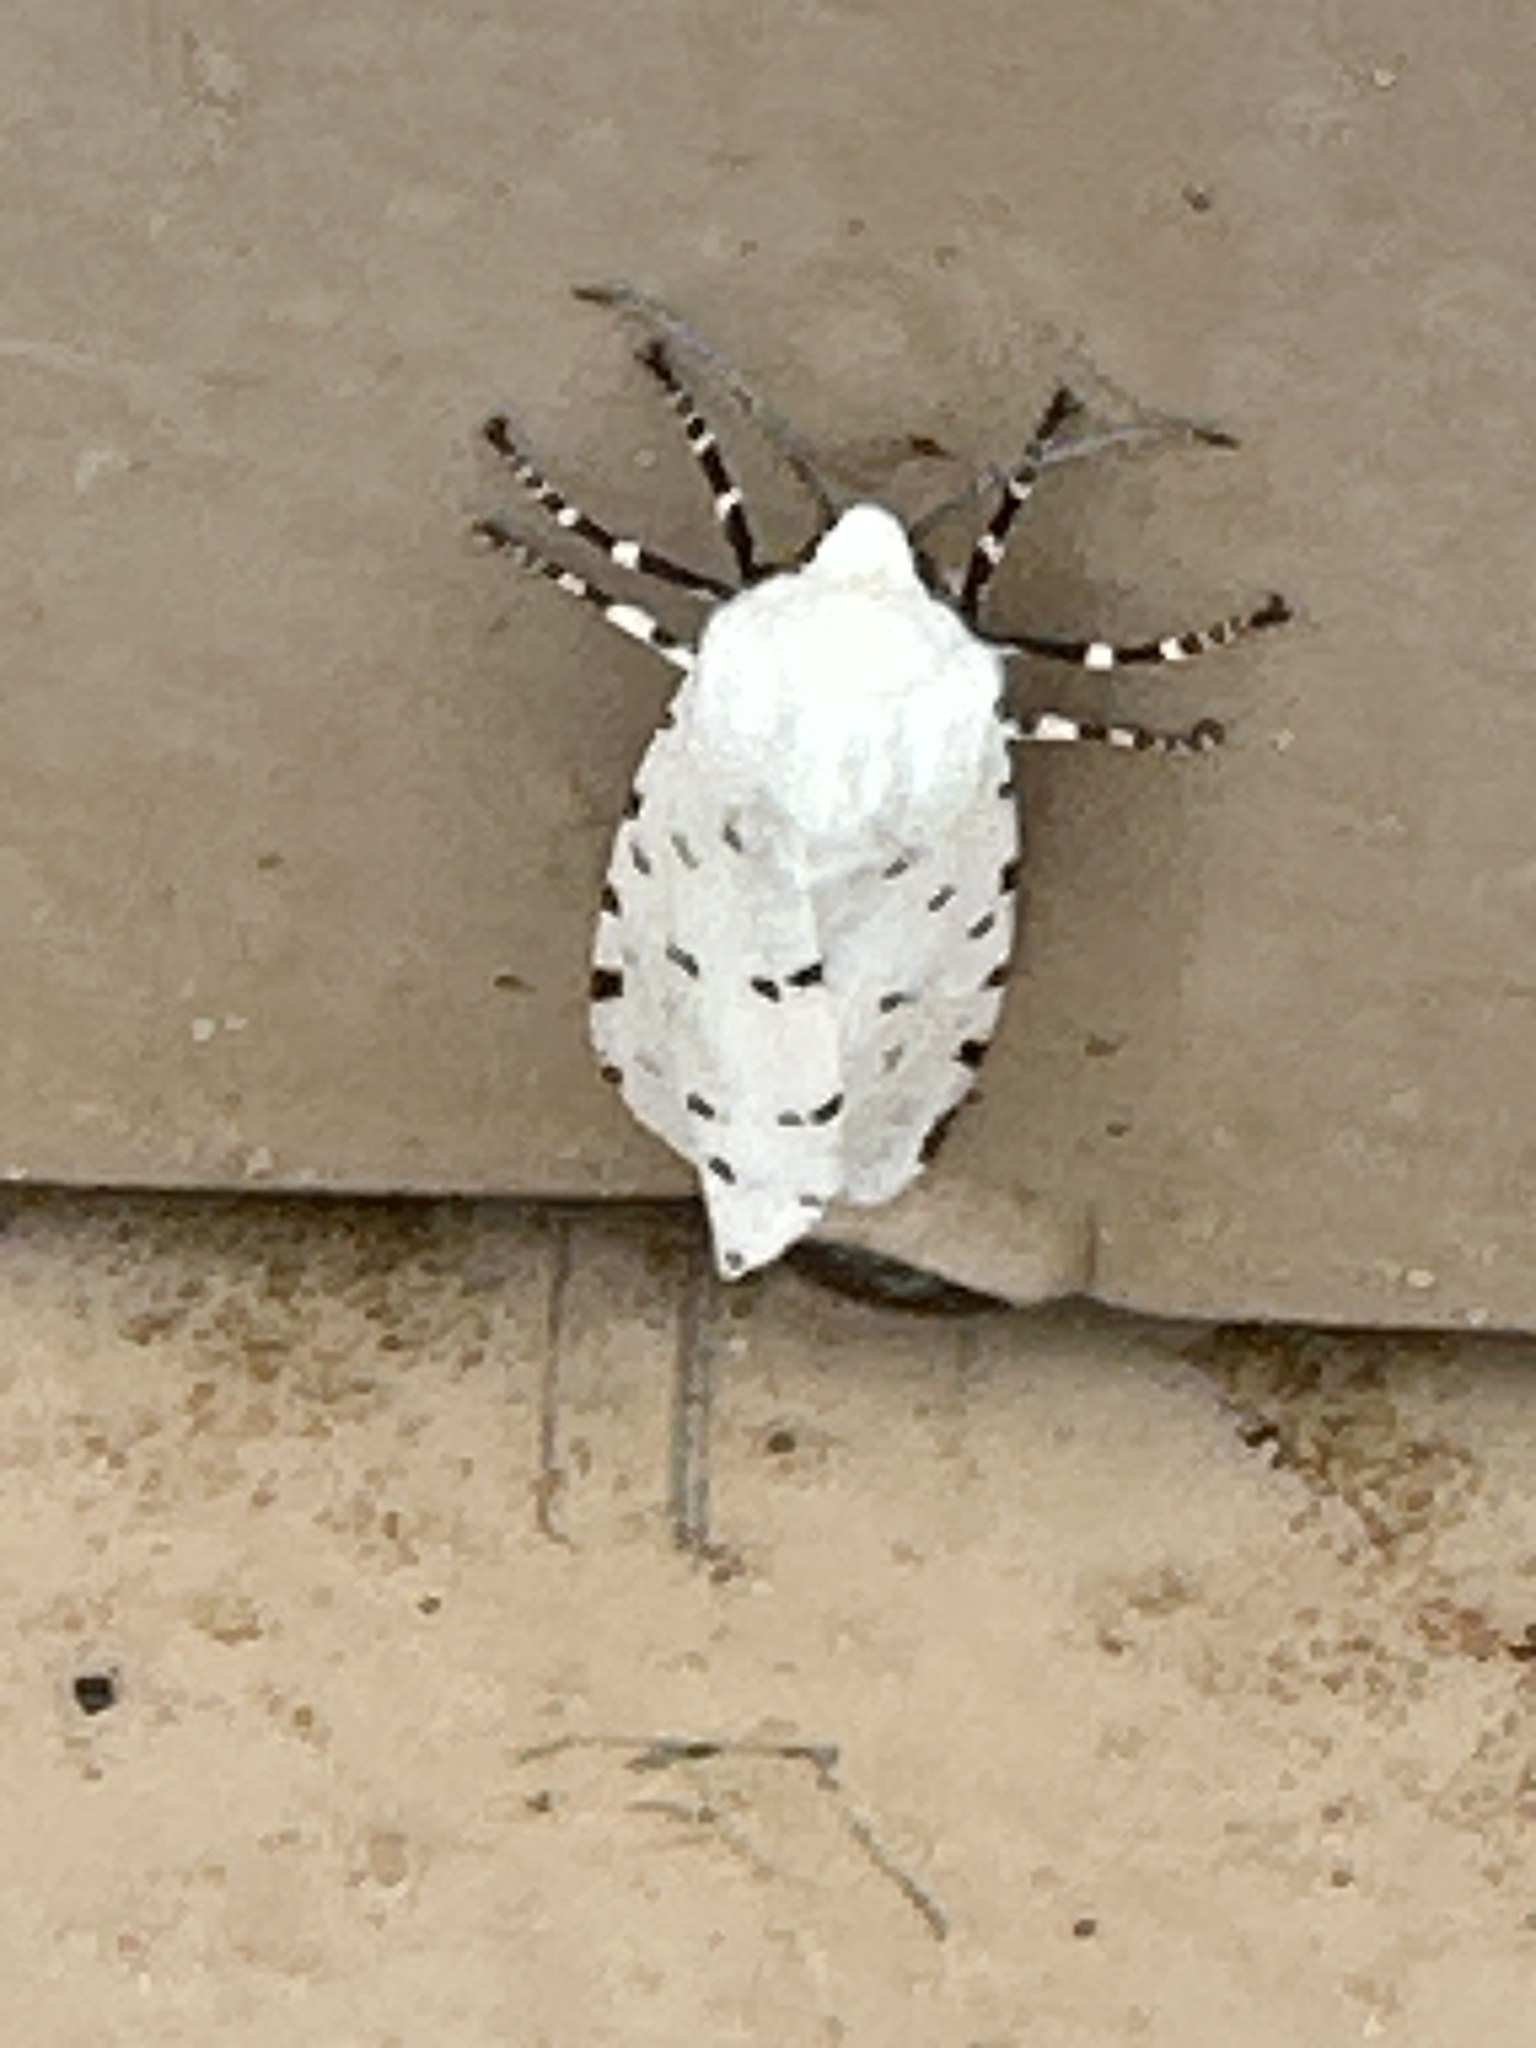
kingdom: Animalia
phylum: Arthropoda
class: Insecta
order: Lepidoptera
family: Erebidae
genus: Estigmene
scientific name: Estigmene acrea
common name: Salt marsh moth
